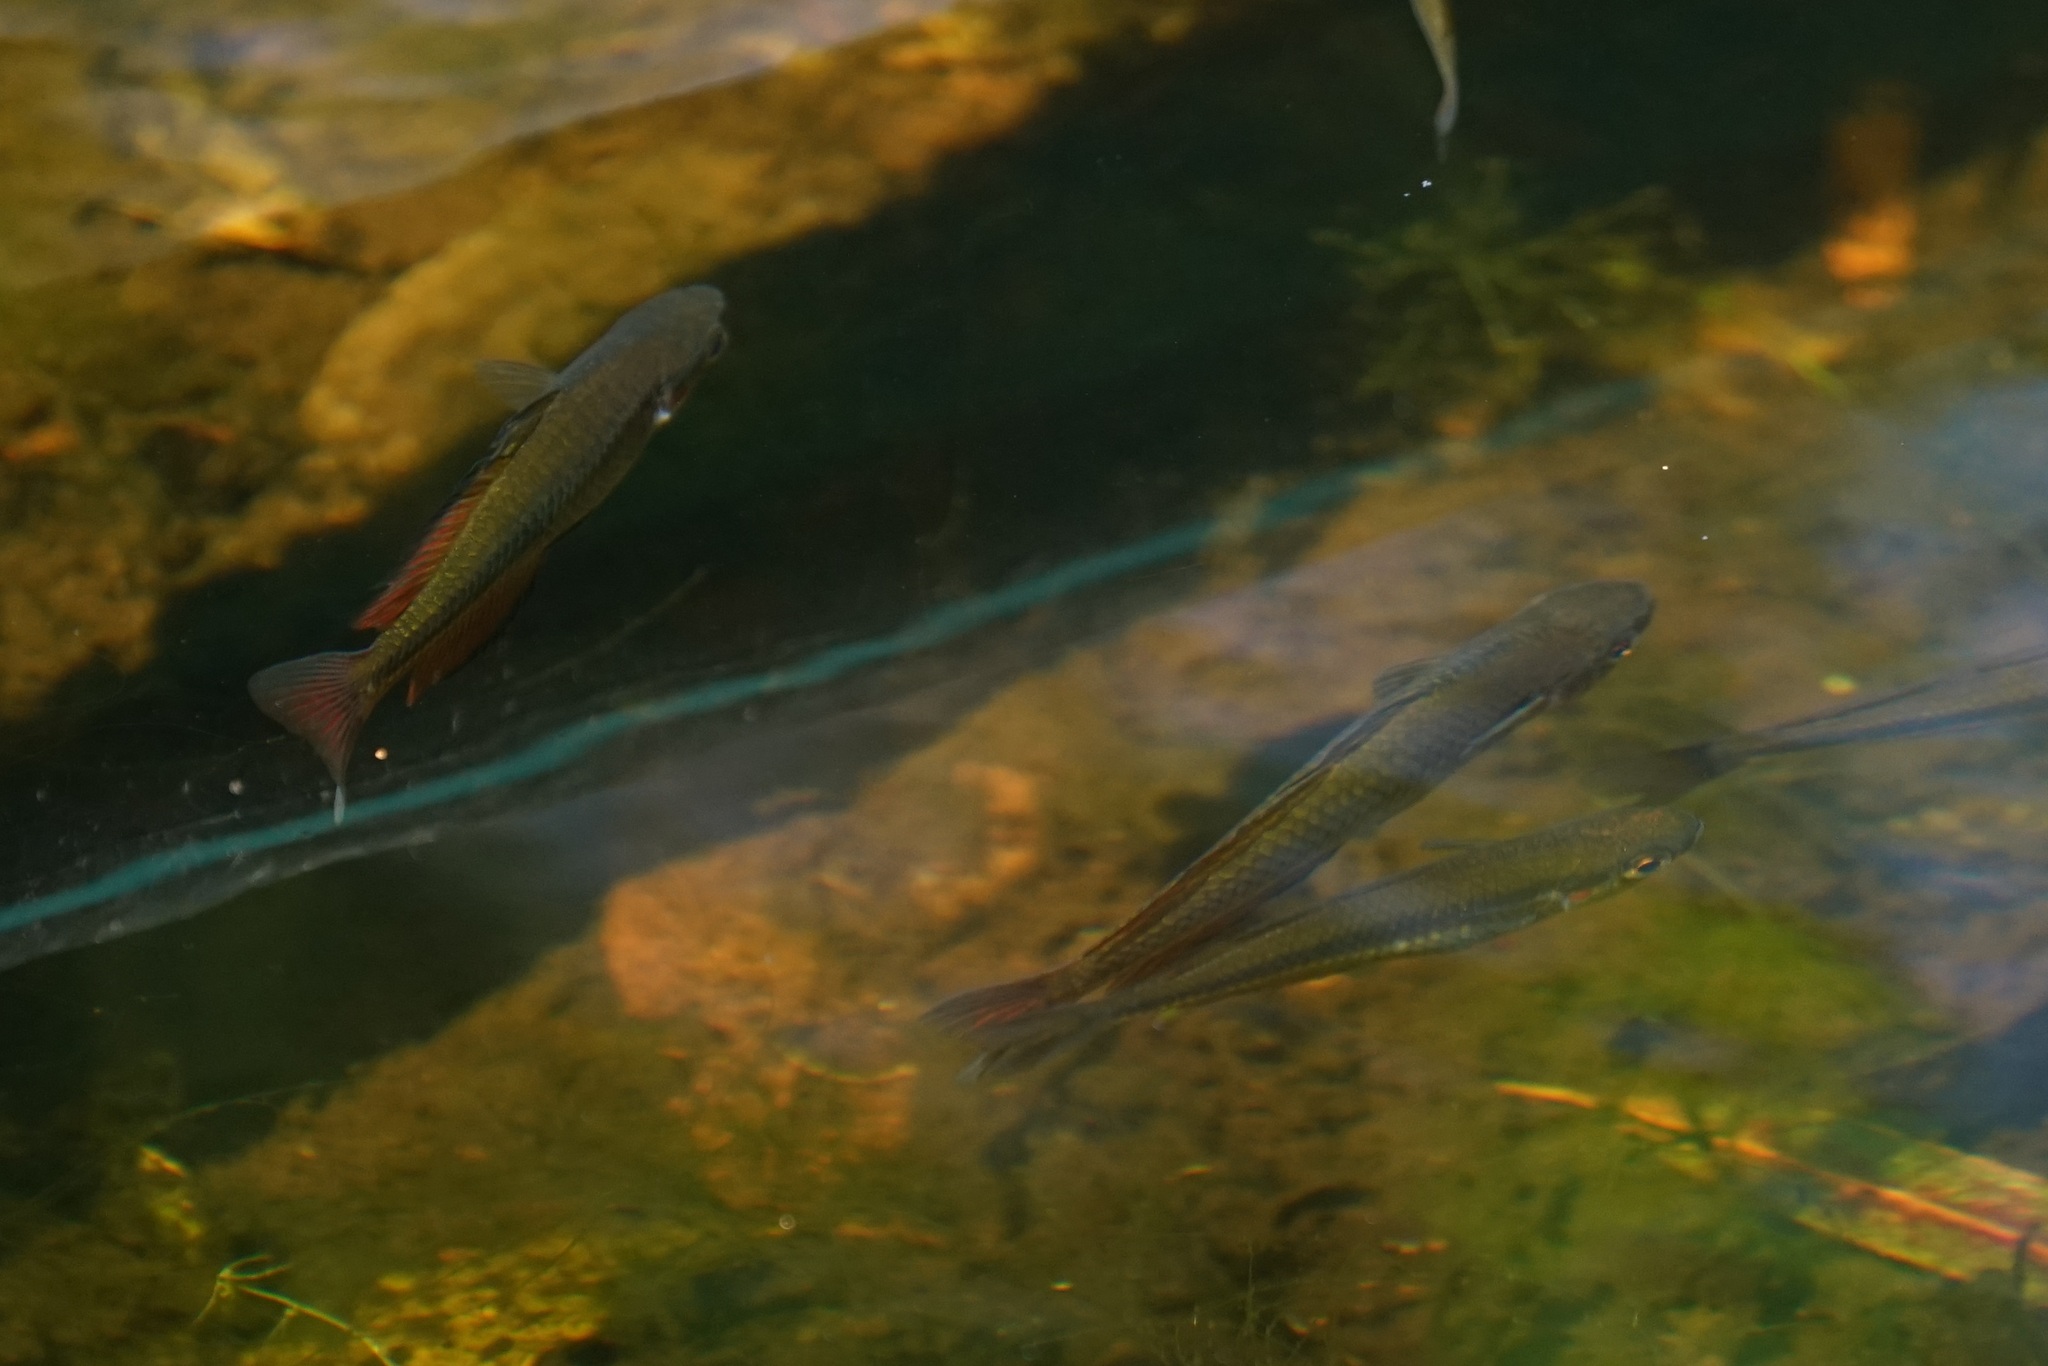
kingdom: Animalia
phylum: Chordata
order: Atheriniformes
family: Melanotaeniidae
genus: Melanotaenia
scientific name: Melanotaenia duboulayi
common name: Crimson-spotted rainbowfish
